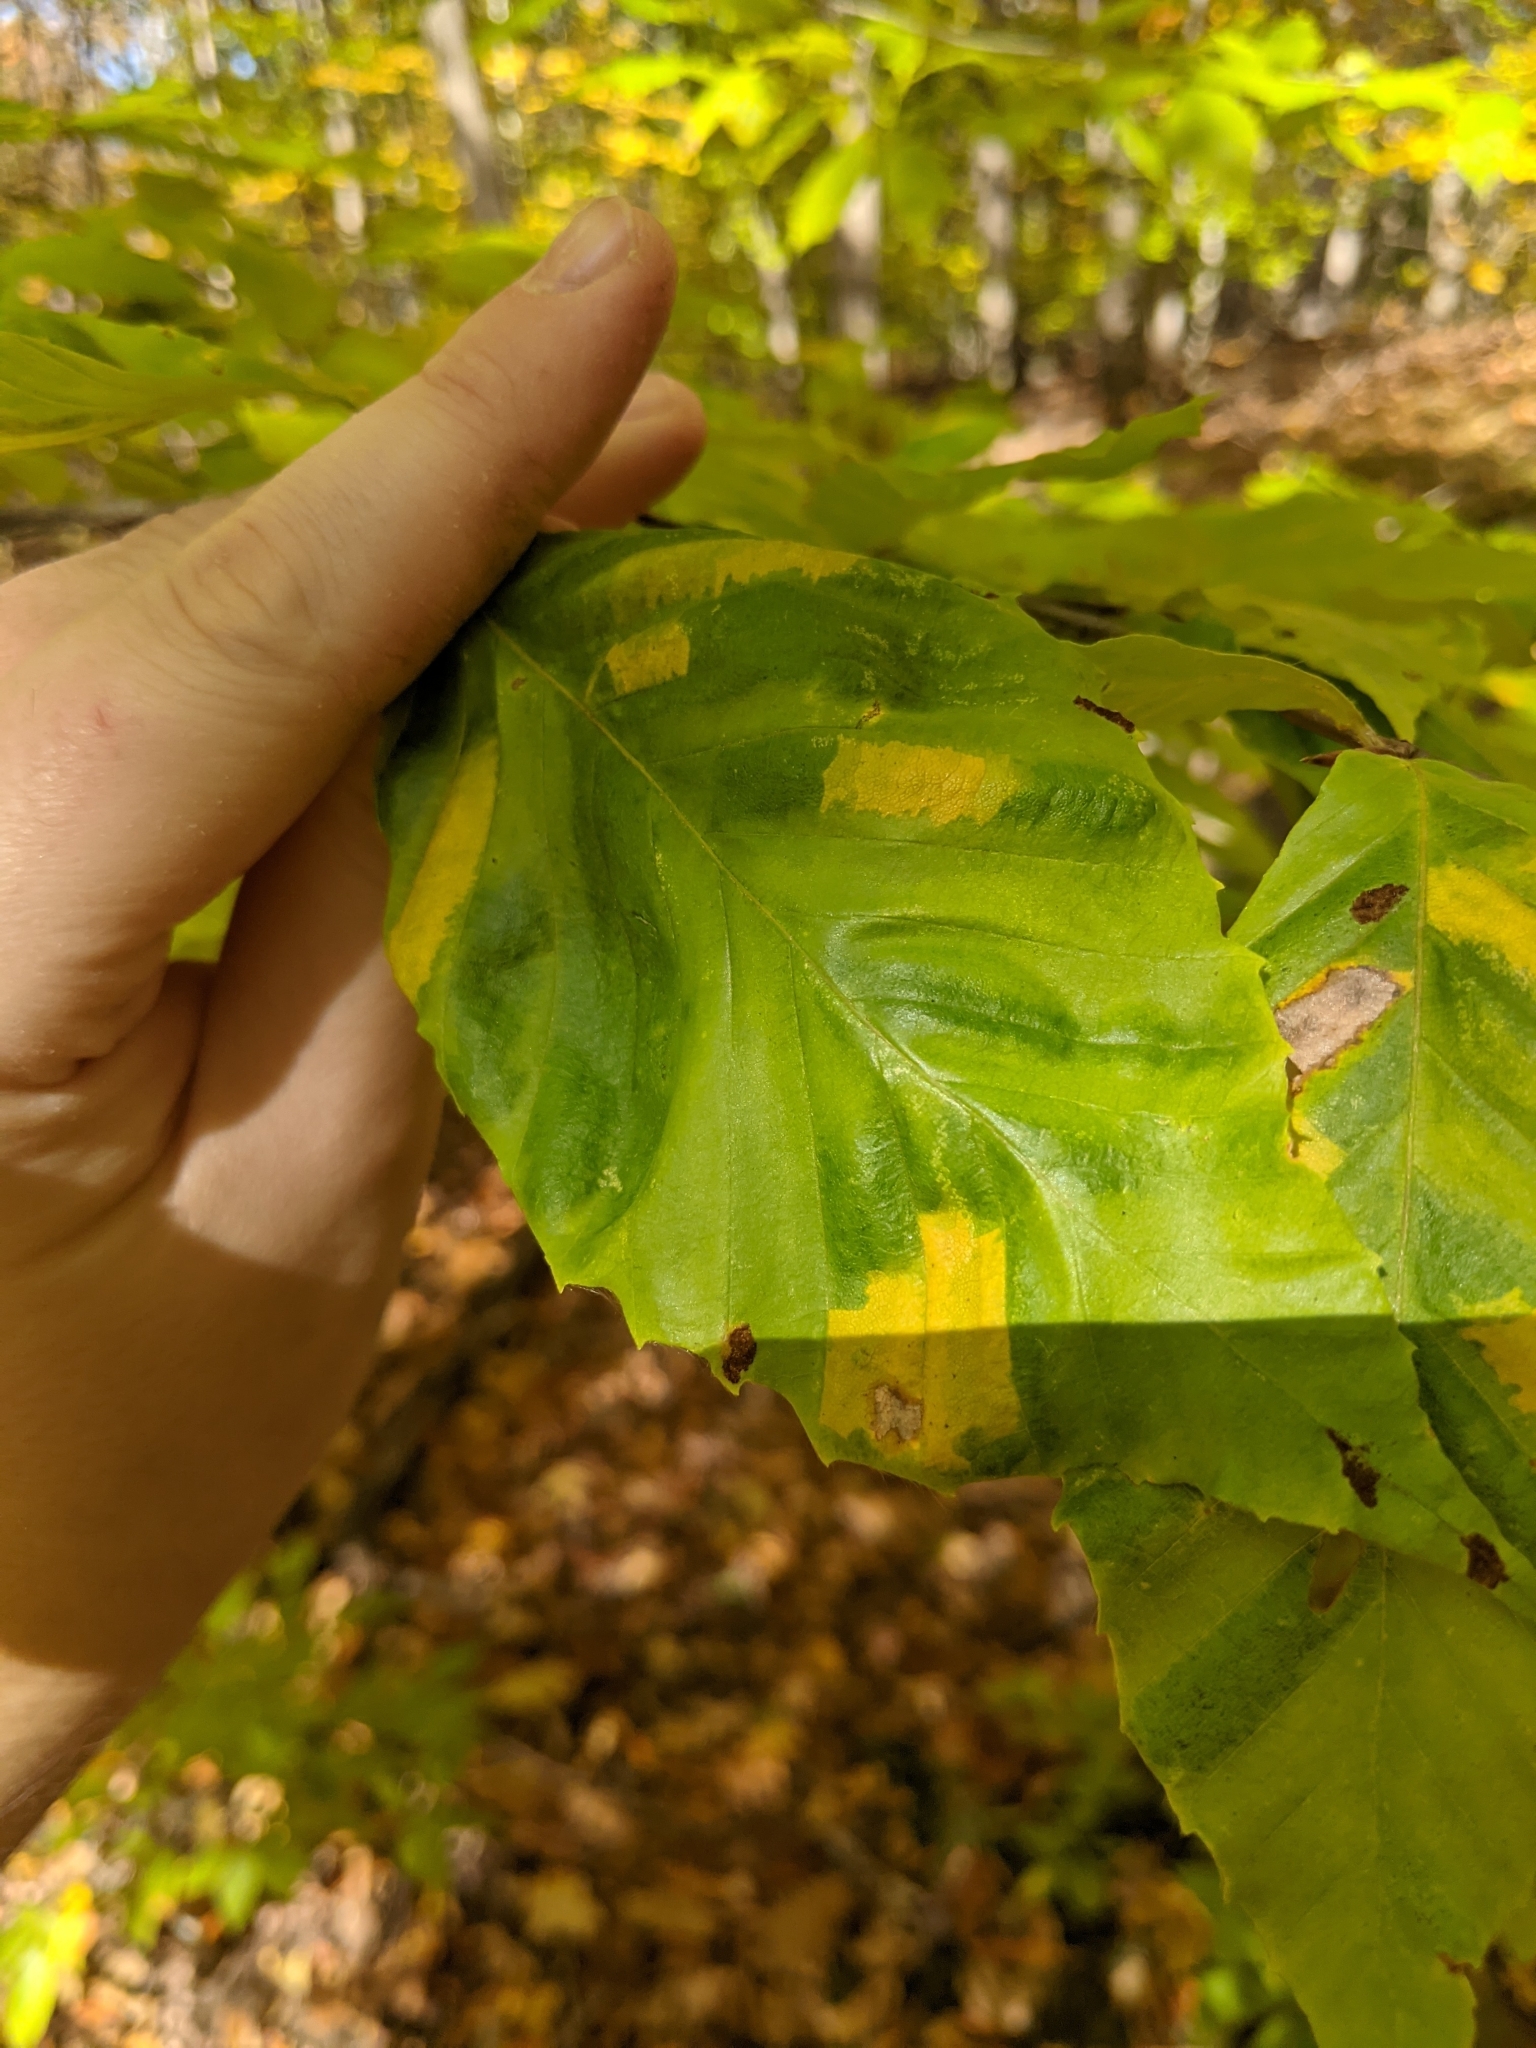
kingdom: Animalia
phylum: Nematoda
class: Chromadorea
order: Rhabditida
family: Anguinidae
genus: Litylenchus
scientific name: Litylenchus crenatae
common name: Beech leaf disease
